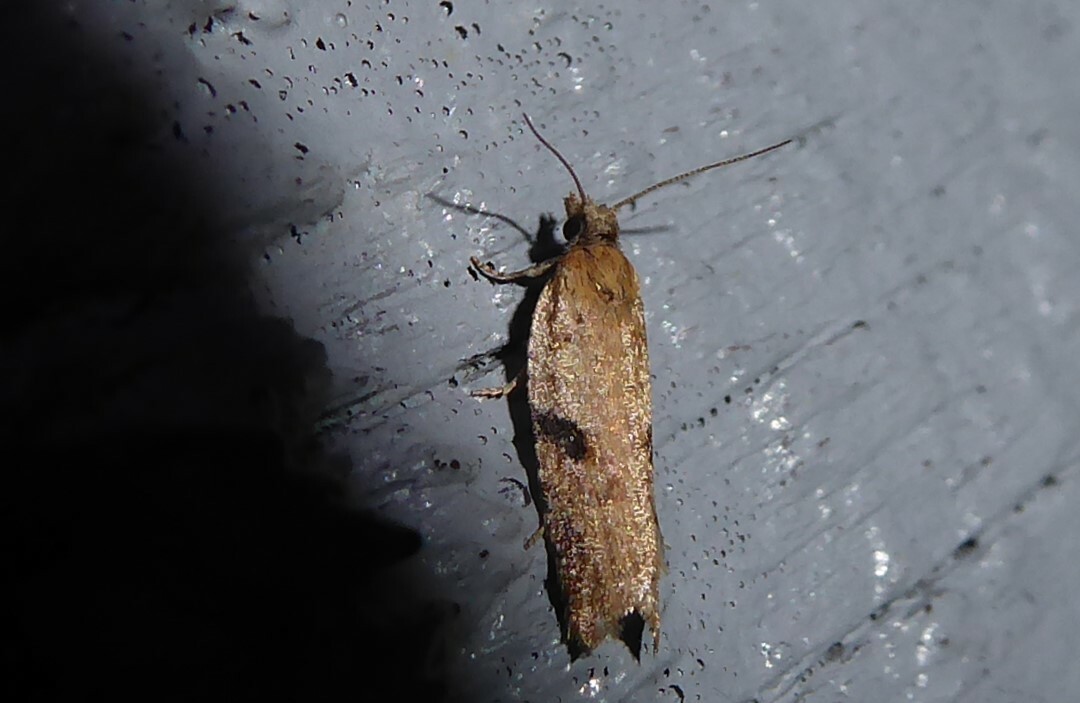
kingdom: Animalia
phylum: Arthropoda
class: Insecta
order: Lepidoptera
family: Tortricidae
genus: Capua
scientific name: Capua semiferana
